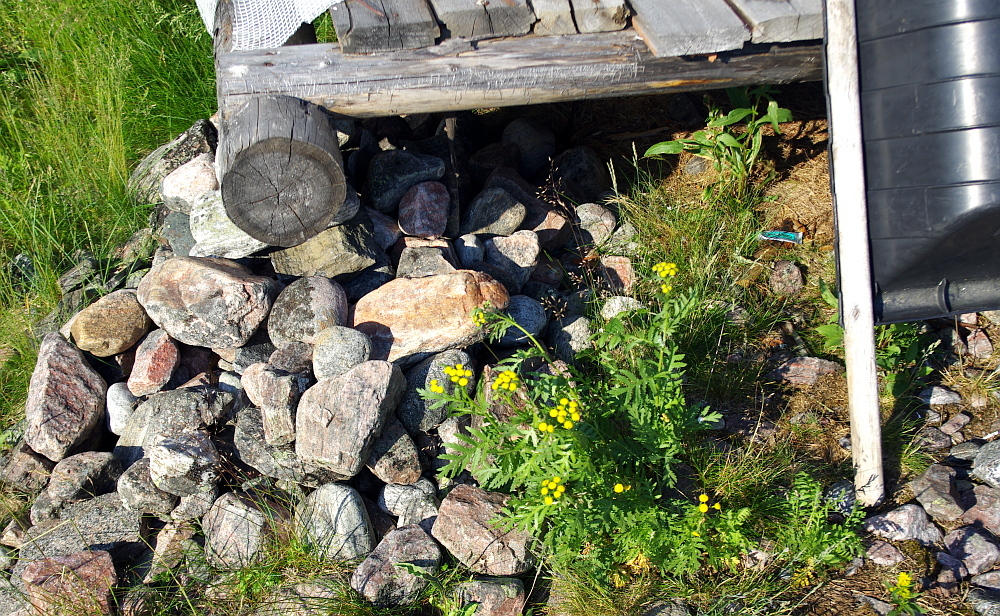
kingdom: Plantae
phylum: Tracheophyta
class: Magnoliopsida
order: Asterales
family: Asteraceae
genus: Tanacetum
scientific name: Tanacetum vulgare
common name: Common tansy
